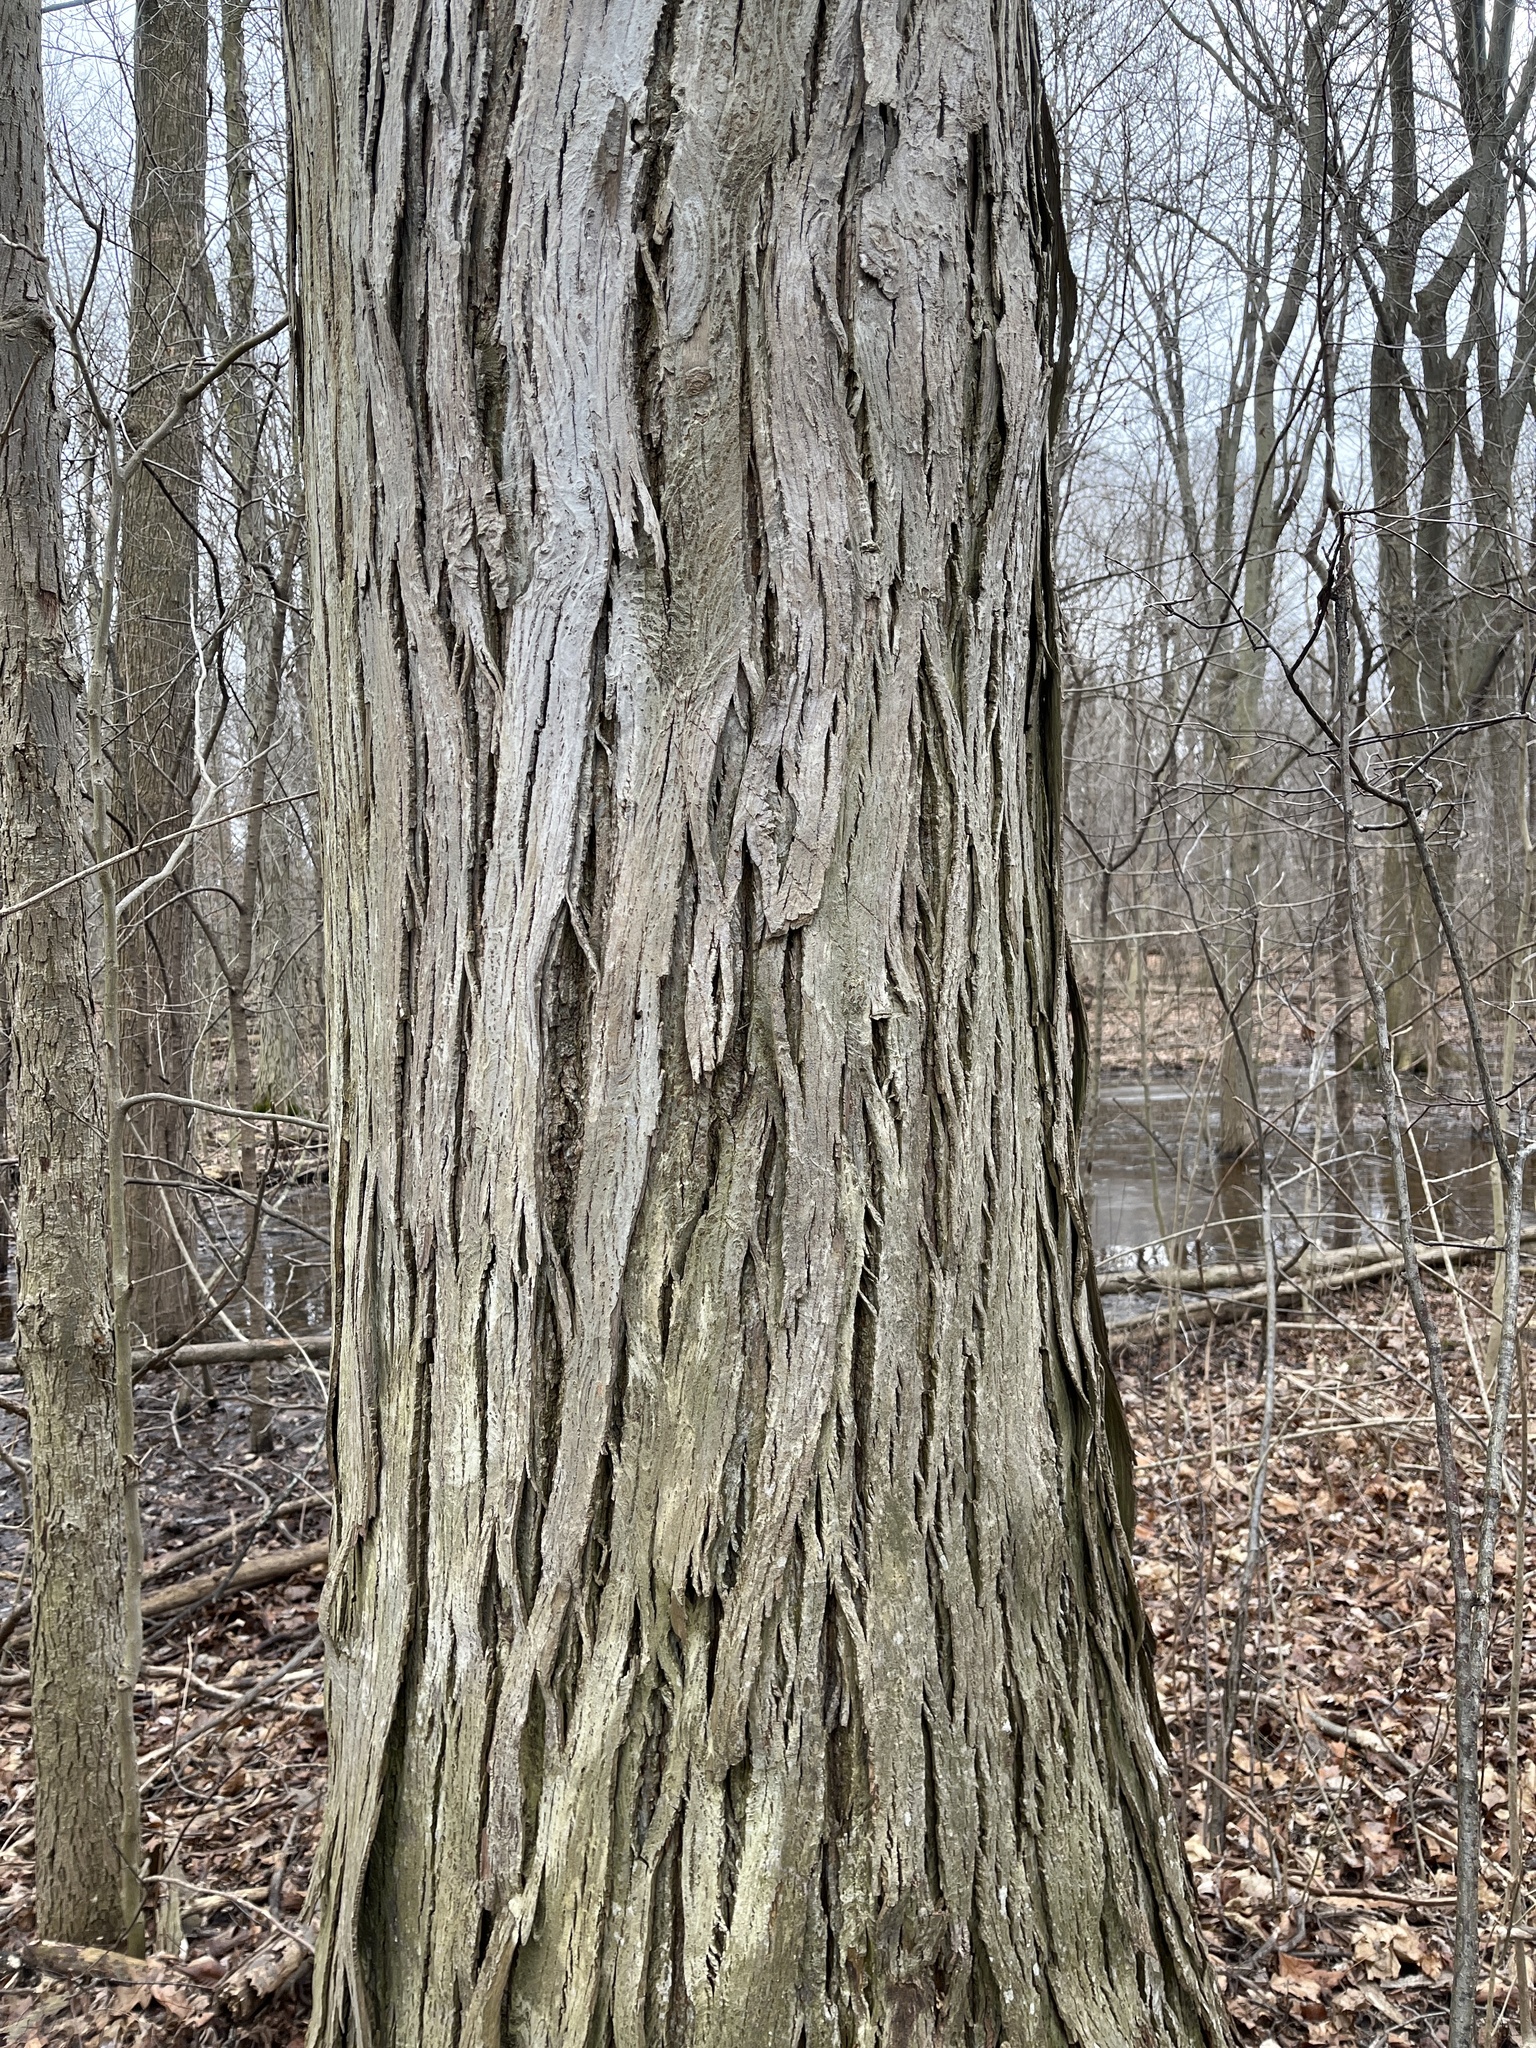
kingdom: Plantae
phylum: Tracheophyta
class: Magnoliopsida
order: Fagales
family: Juglandaceae
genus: Carya
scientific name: Carya ovata
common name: Shagbark hickory
